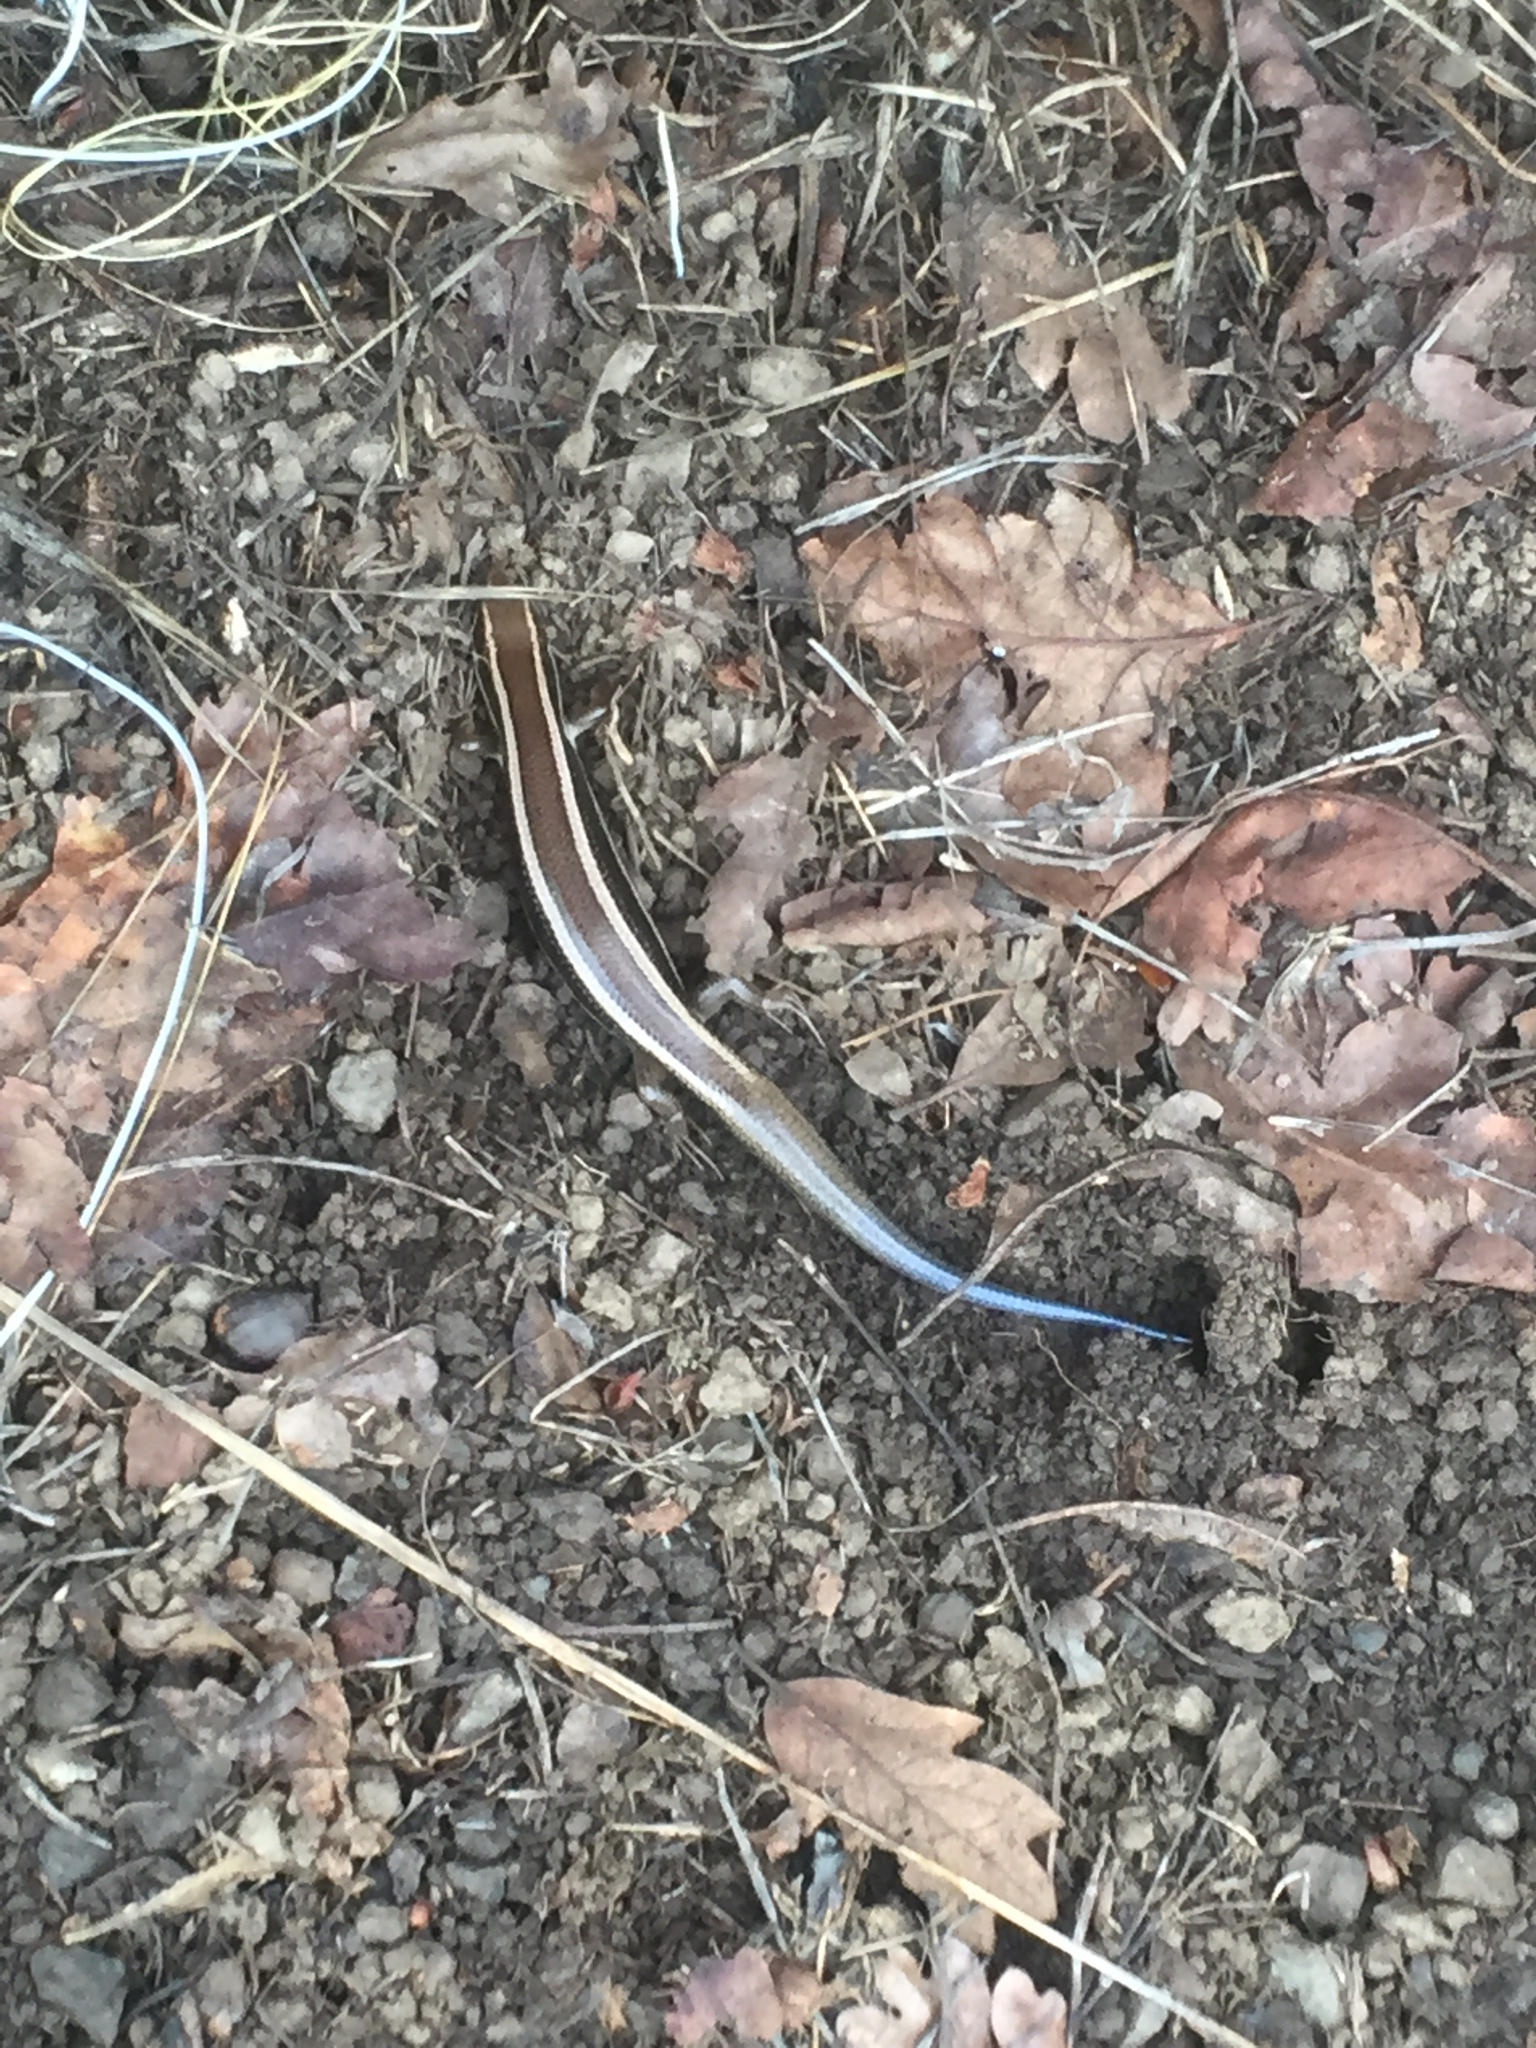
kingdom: Animalia
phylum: Chordata
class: Squamata
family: Scincidae
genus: Plestiodon
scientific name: Plestiodon skiltonianus
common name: Coronado island skink [interparietalis]
